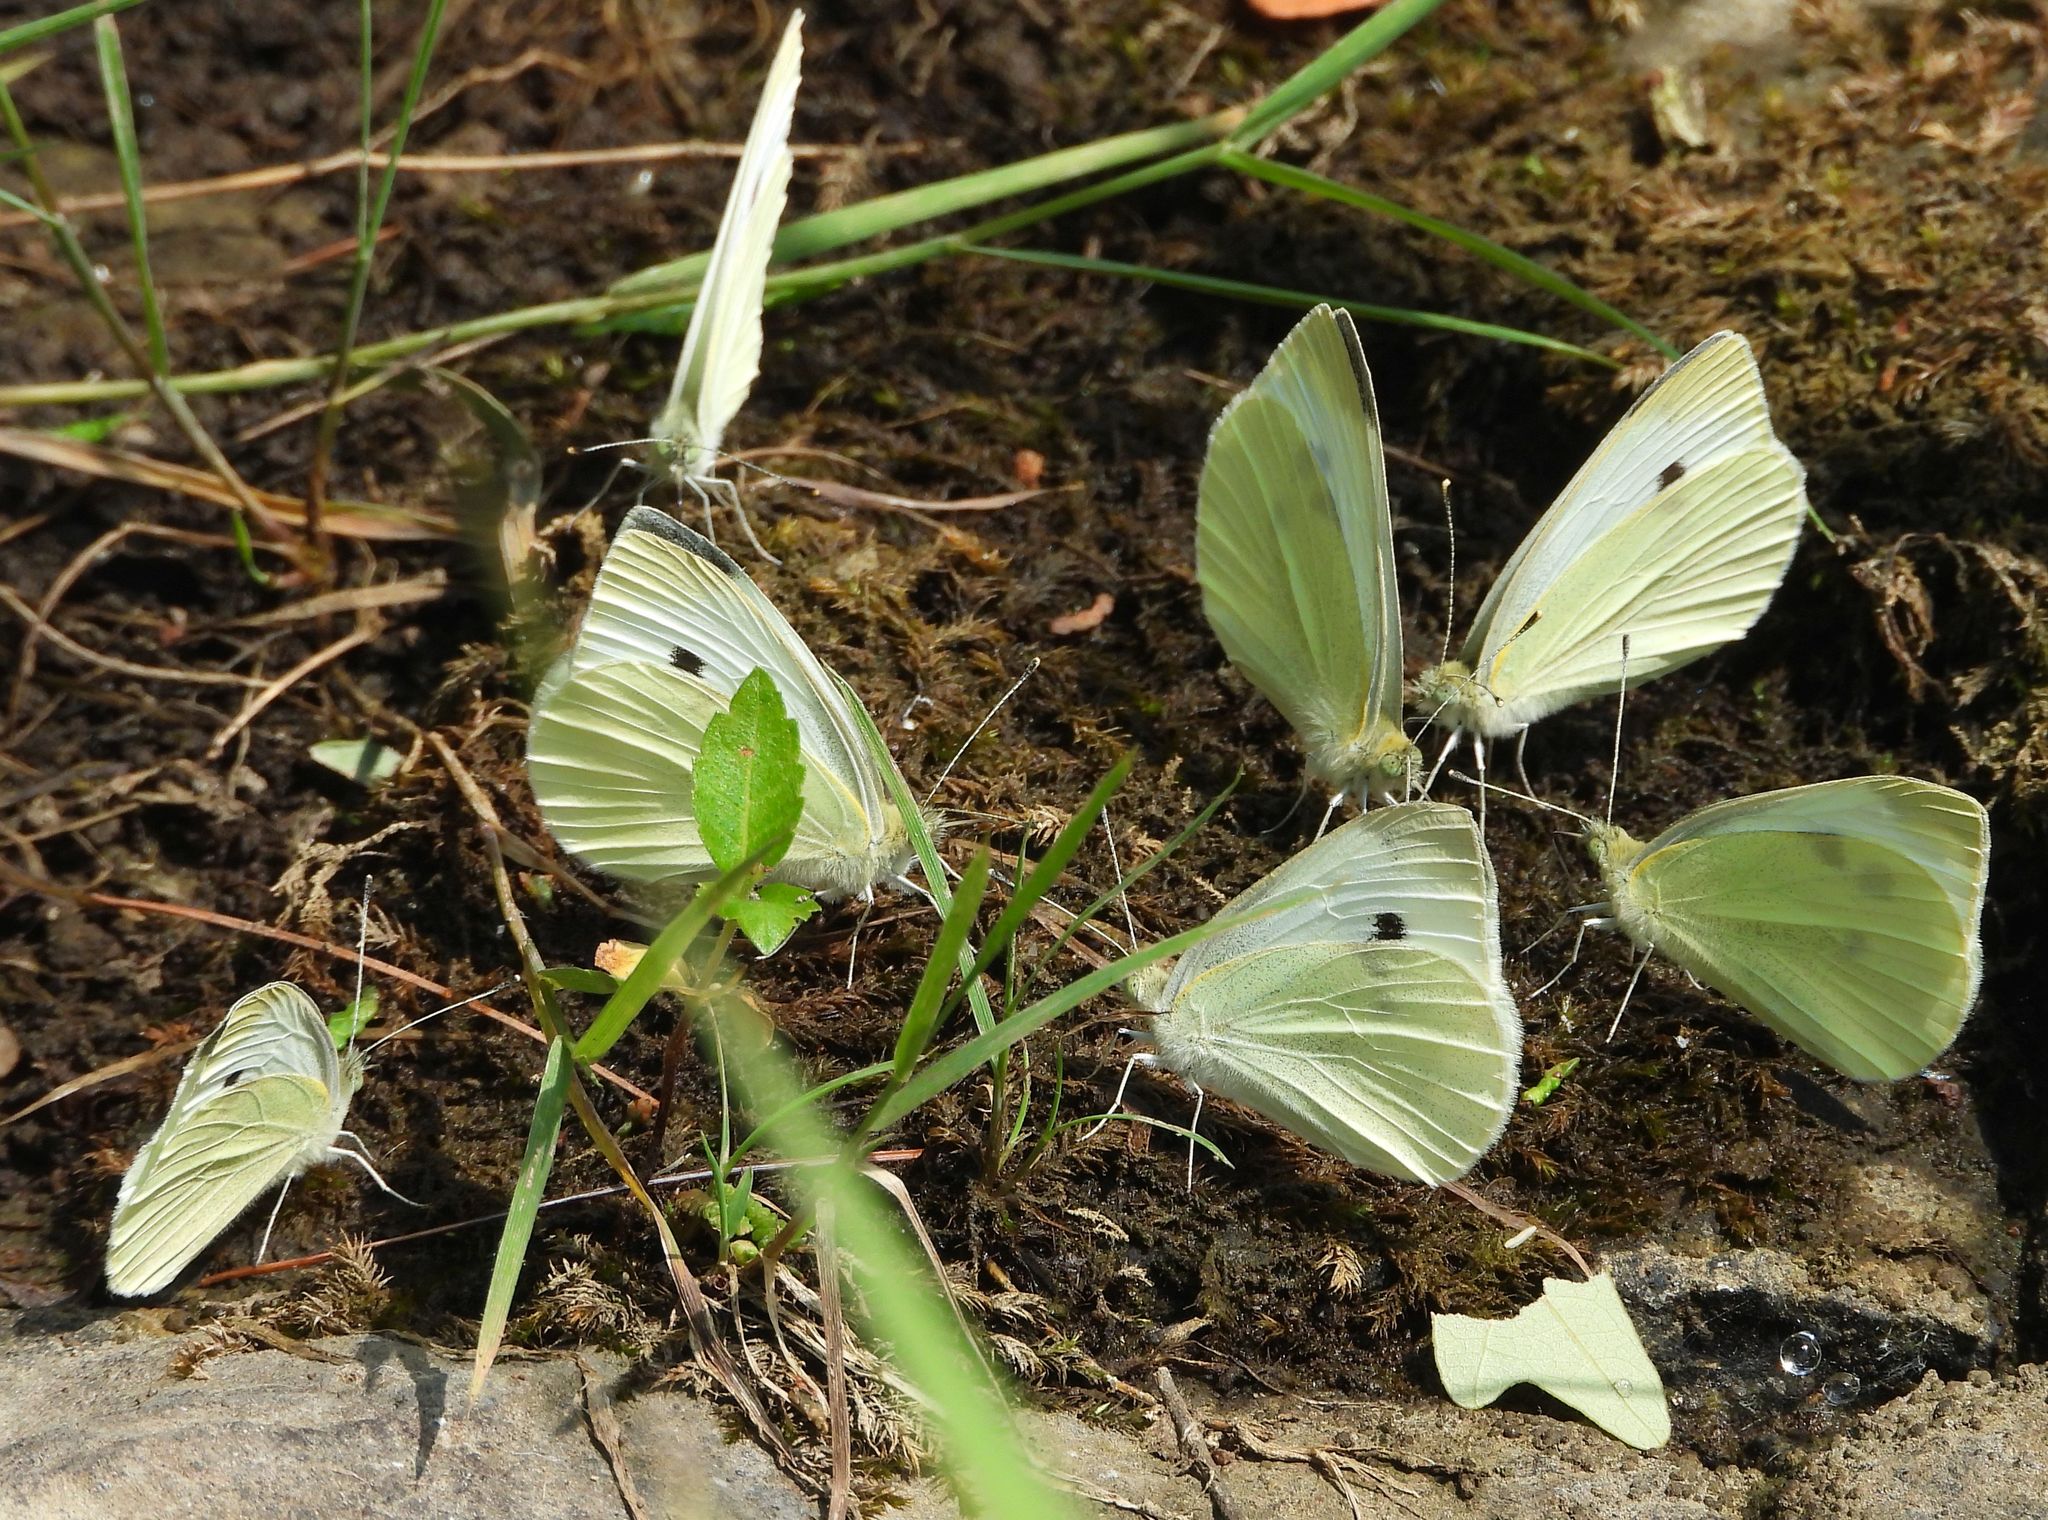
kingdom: Animalia
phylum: Arthropoda
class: Insecta
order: Lepidoptera
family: Pieridae
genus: Pieris
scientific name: Pieris rapae
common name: Small white
